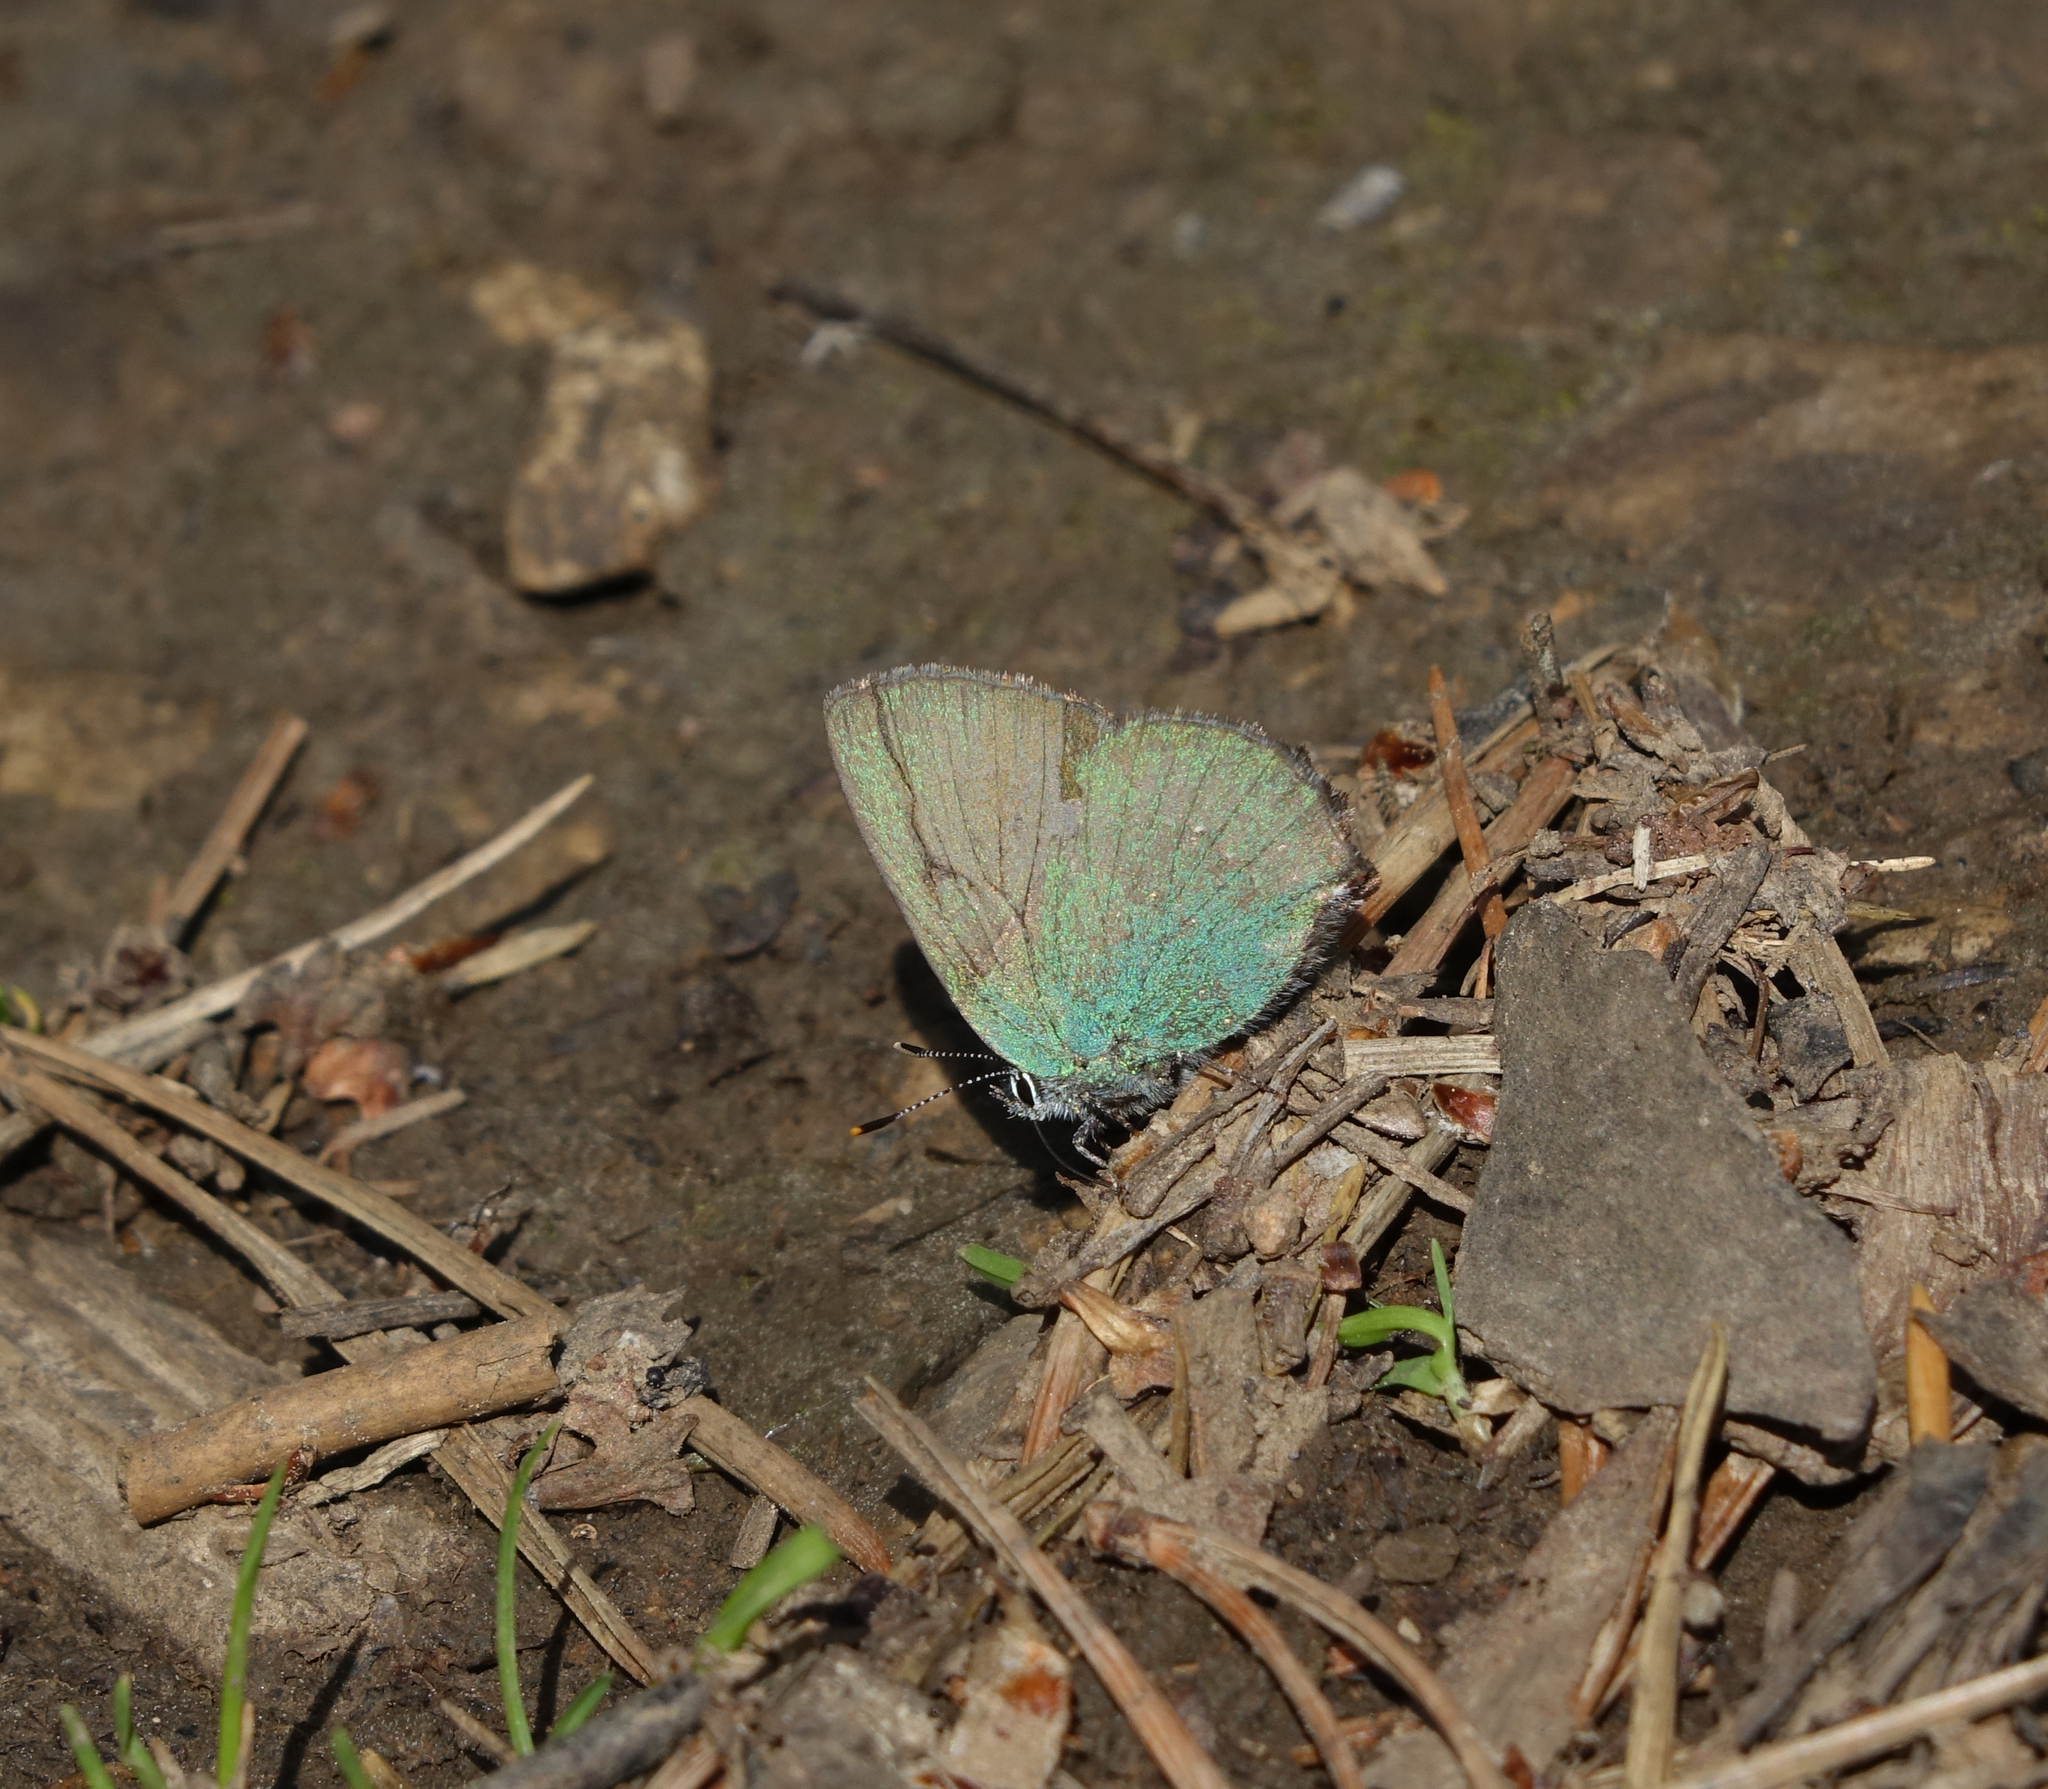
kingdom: Animalia
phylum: Arthropoda
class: Insecta
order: Lepidoptera
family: Lycaenidae
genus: Callophrys
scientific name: Callophrys rubi
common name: Green hairstreak
